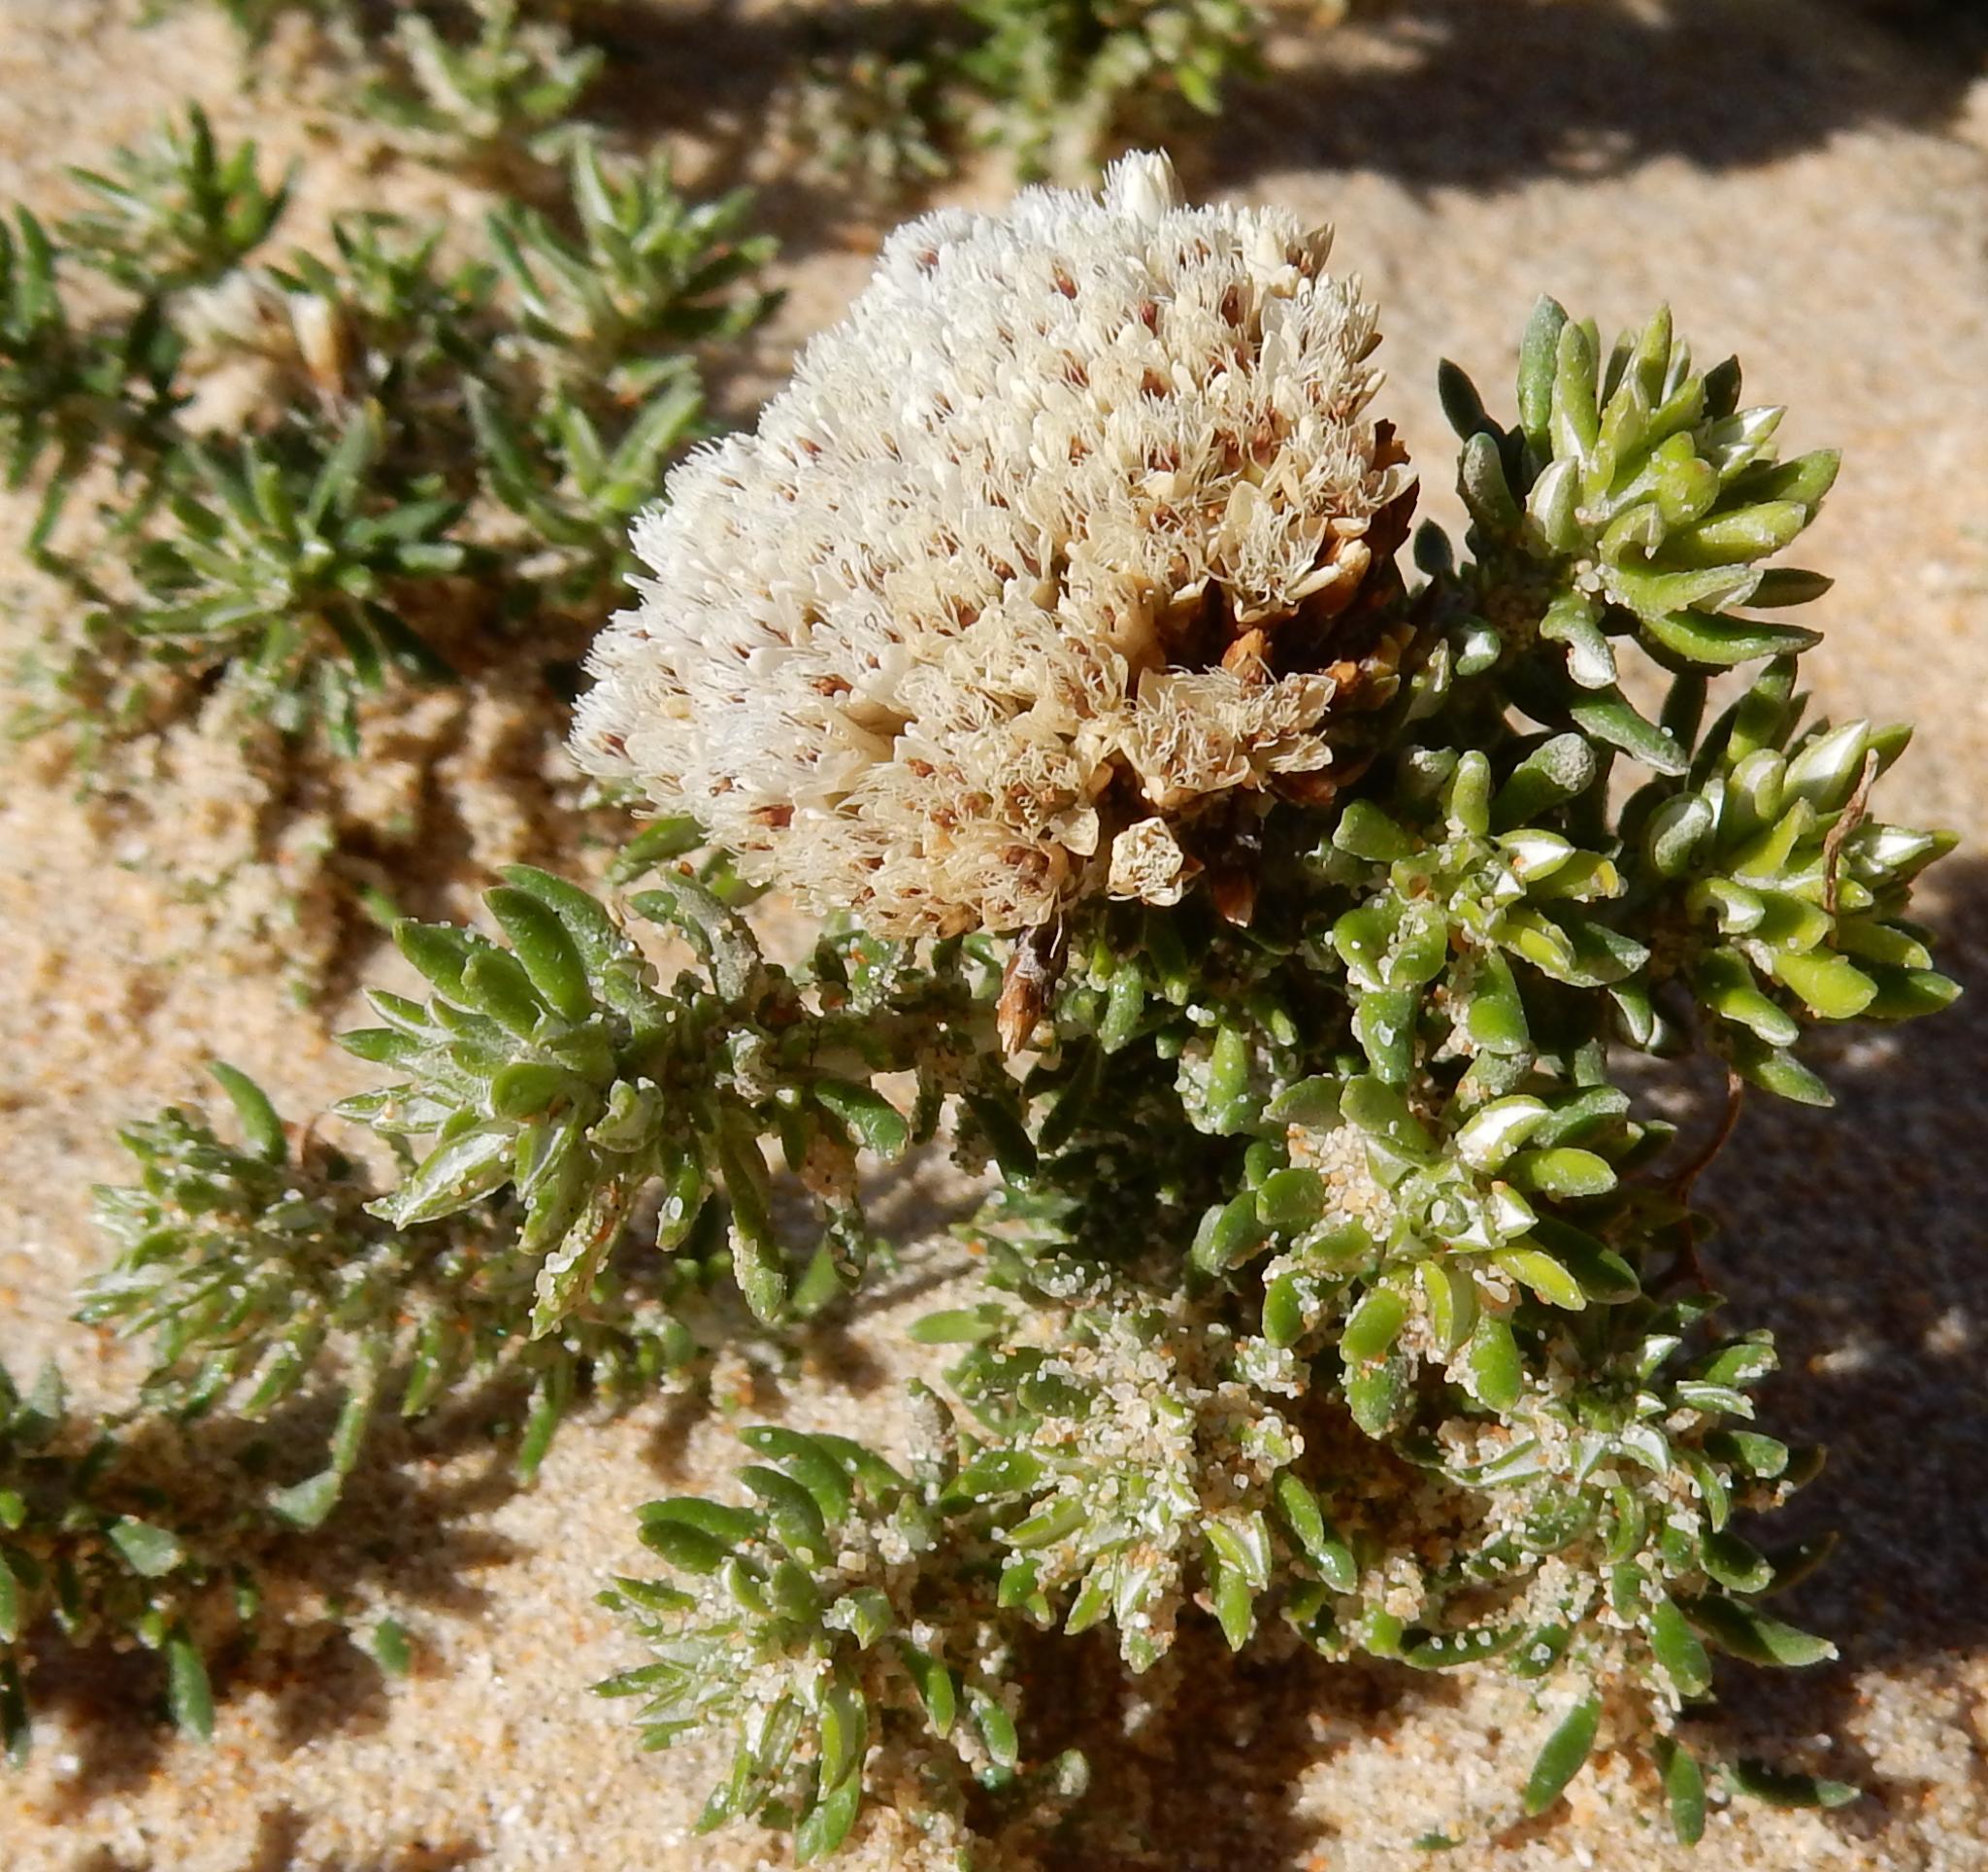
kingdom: Plantae
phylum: Tracheophyta
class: Magnoliopsida
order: Asterales
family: Asteraceae
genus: Metalasia
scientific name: Metalasia muricata
